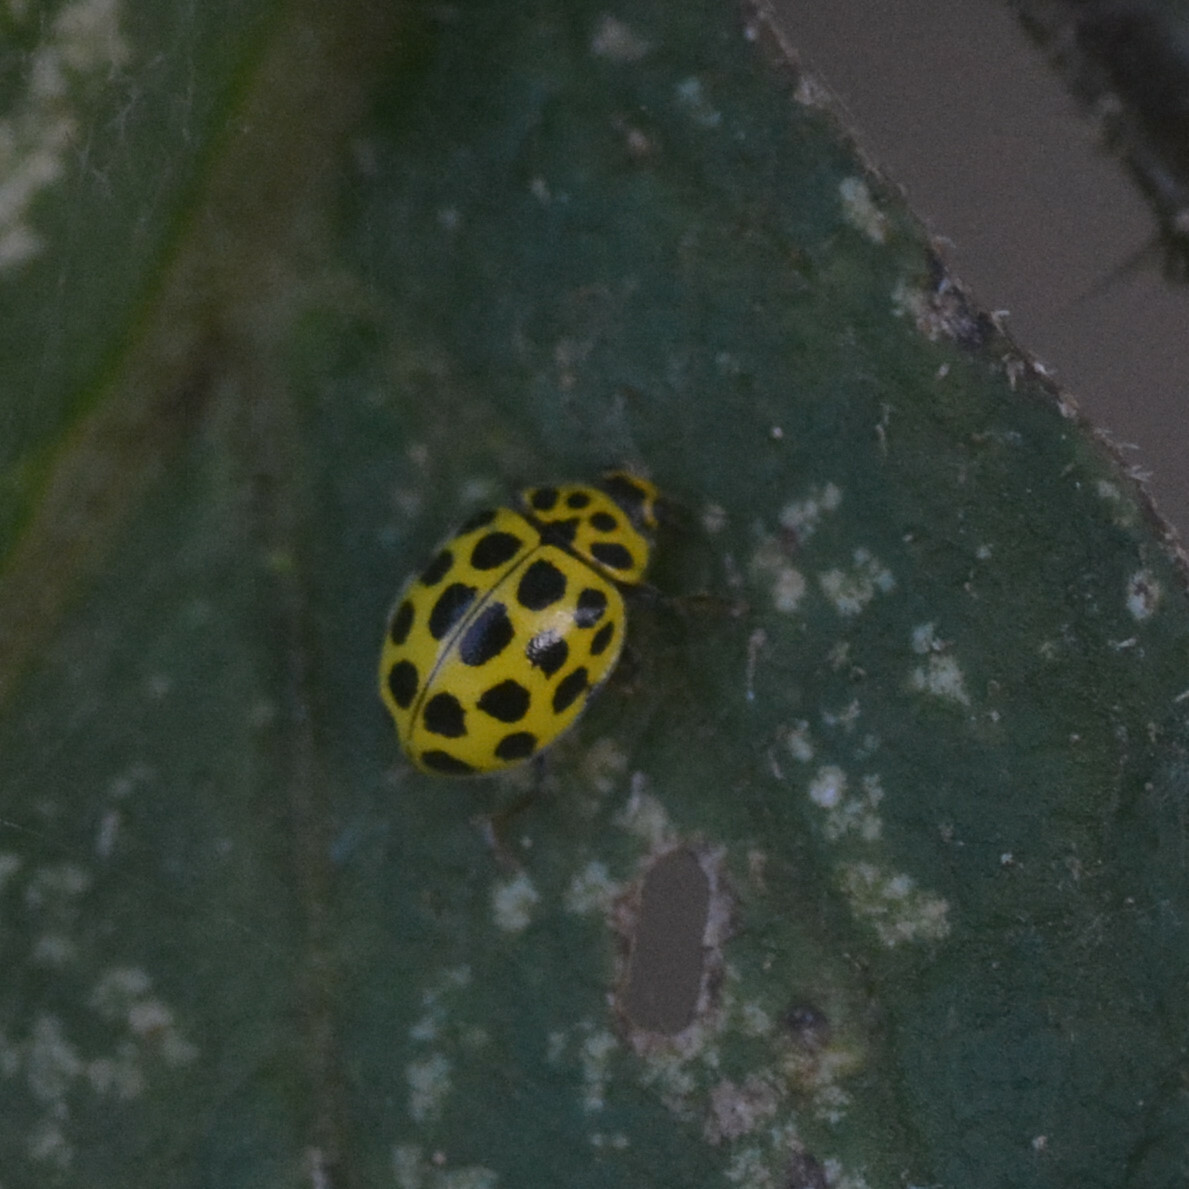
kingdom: Animalia
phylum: Arthropoda
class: Insecta
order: Coleoptera
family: Coccinellidae
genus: Psyllobora
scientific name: Psyllobora vigintiduopunctata
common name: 22-spot ladybird
